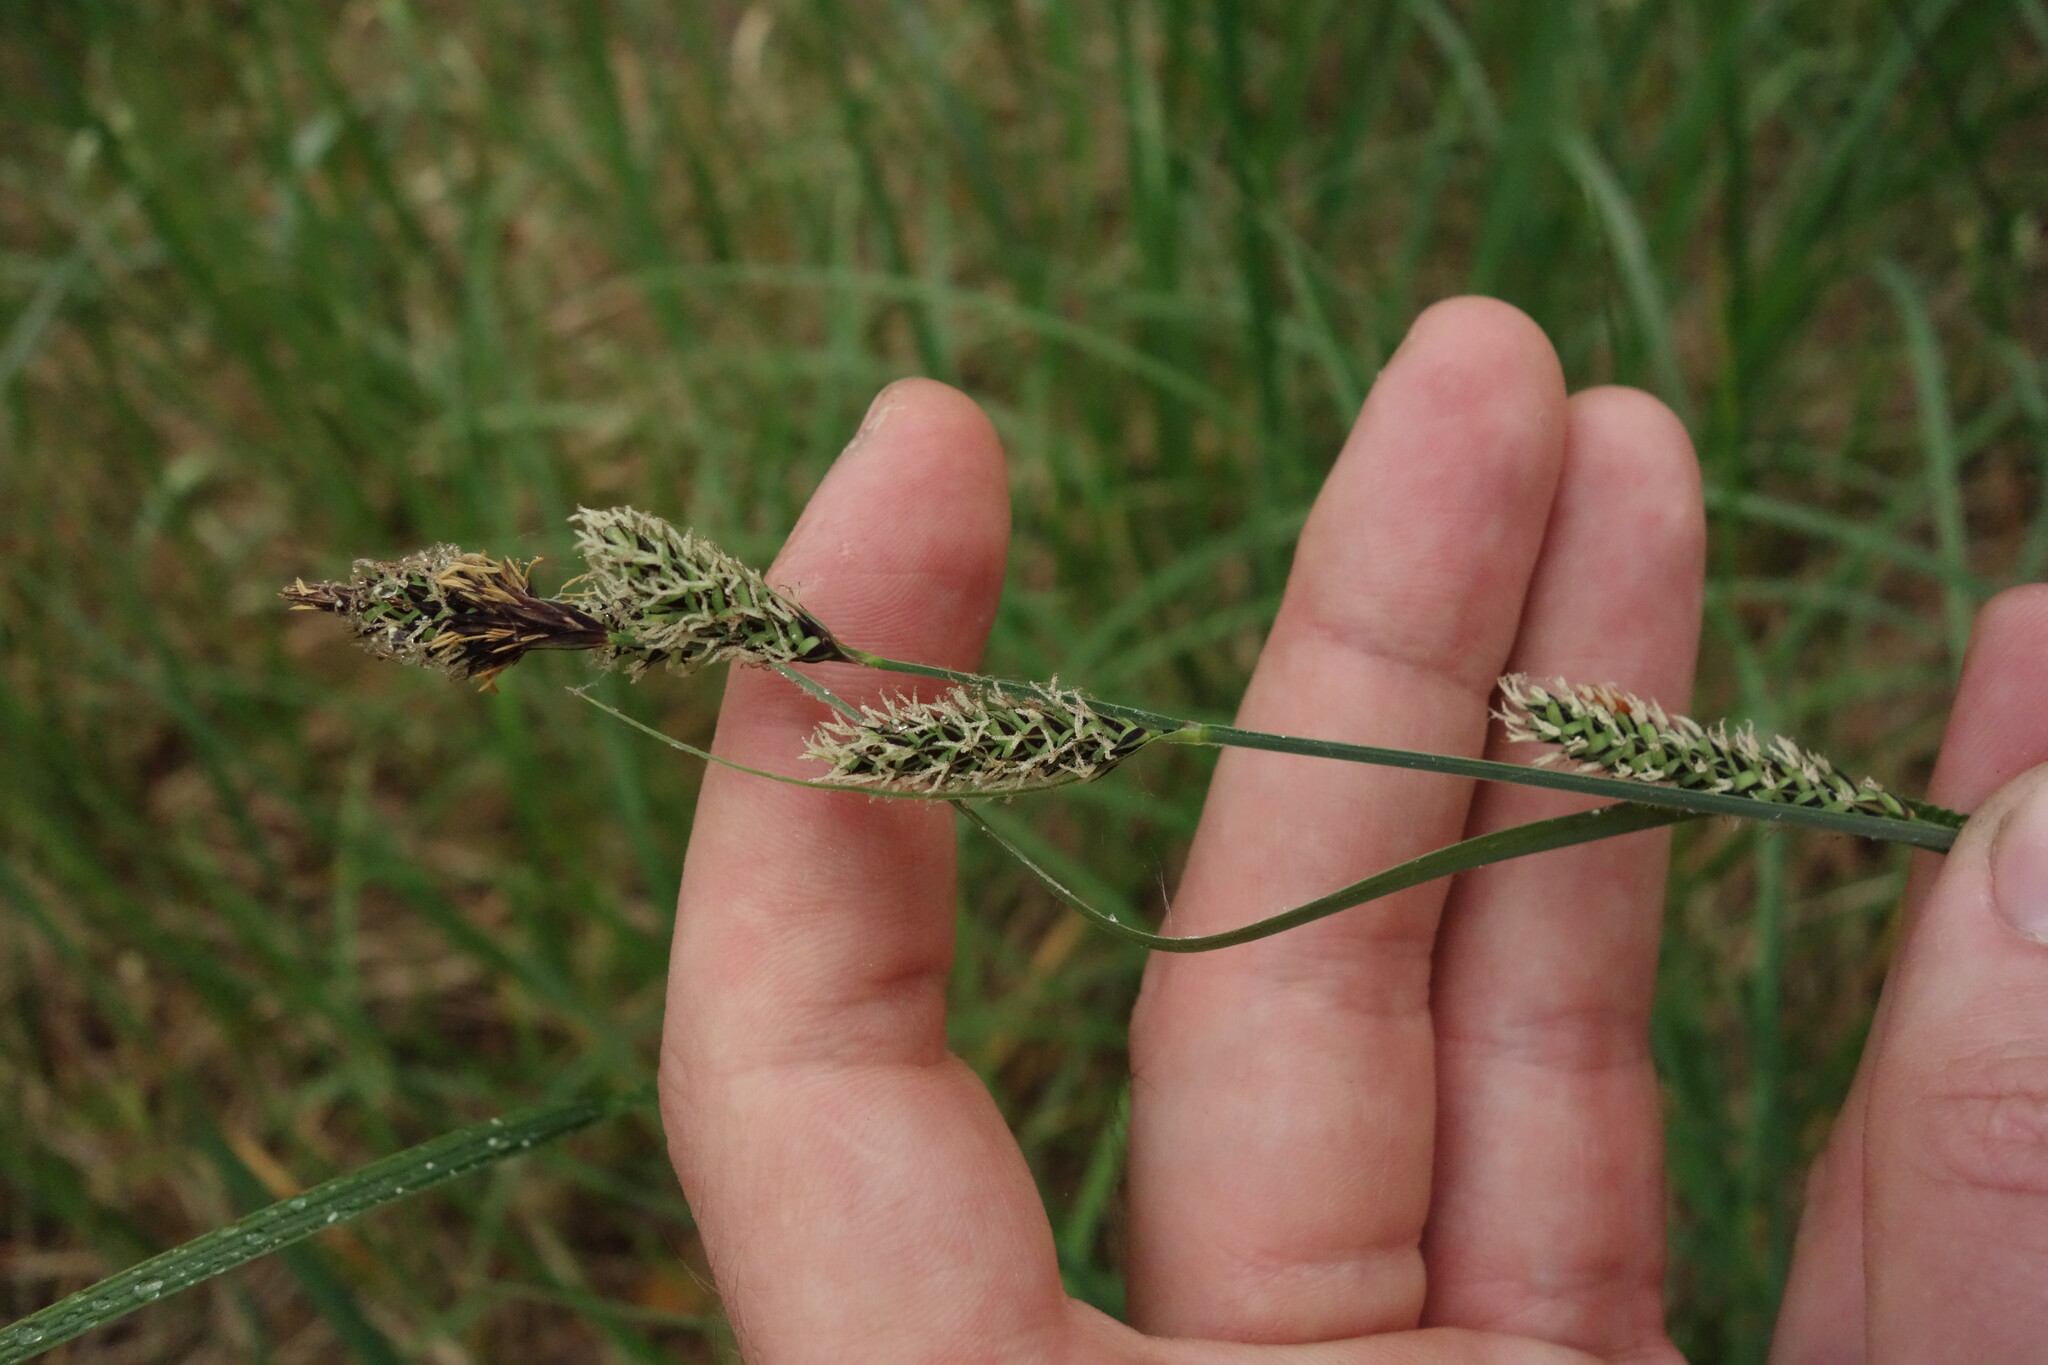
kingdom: Plantae
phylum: Tracheophyta
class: Liliopsida
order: Poales
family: Cyperaceae
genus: Carex
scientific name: Carex buxbaumii
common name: Club sedge
